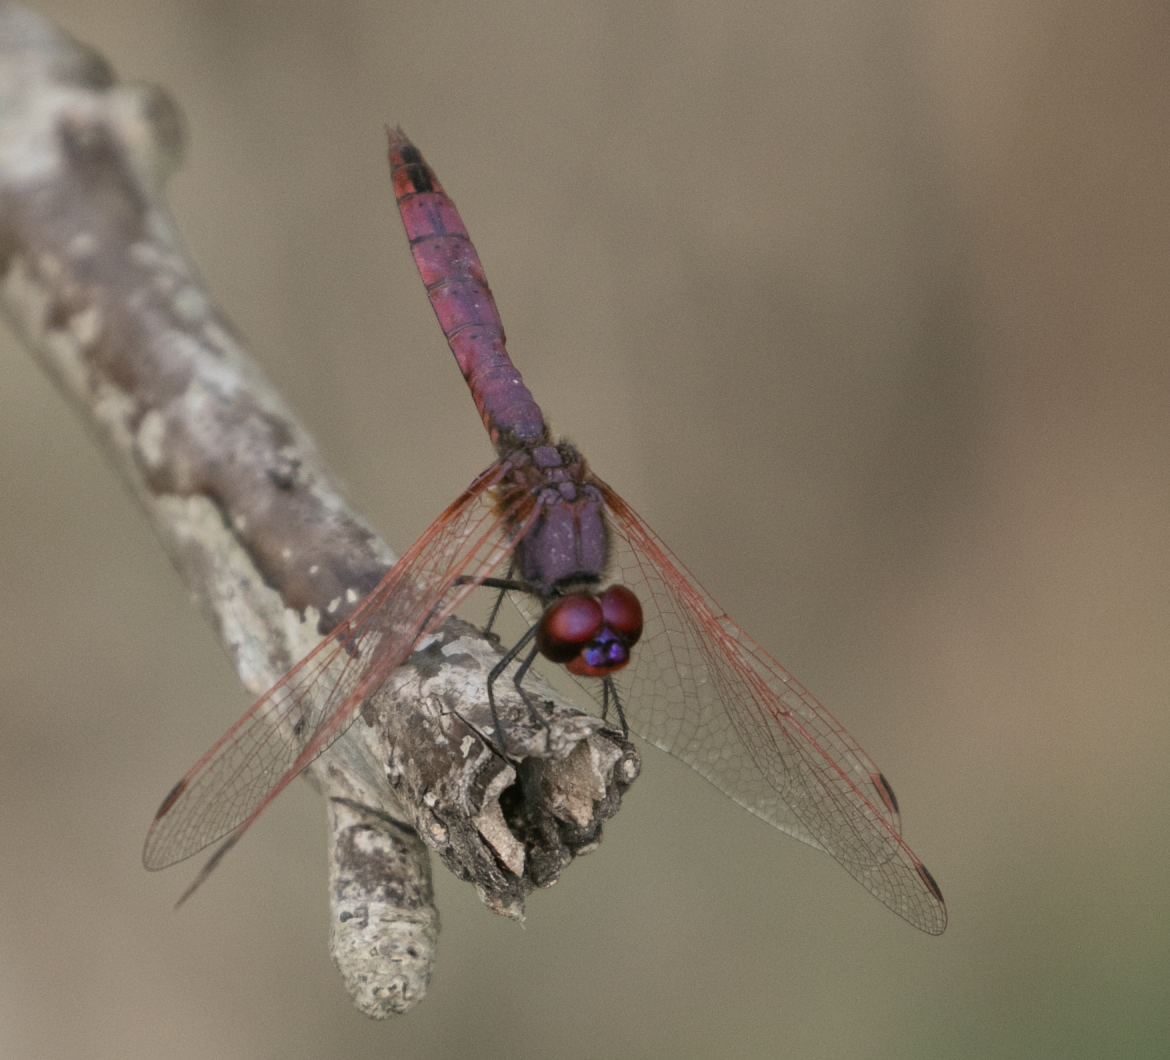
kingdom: Animalia
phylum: Arthropoda
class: Insecta
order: Odonata
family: Libellulidae
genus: Trithemis
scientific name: Trithemis annulata
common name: Violet dropwing
